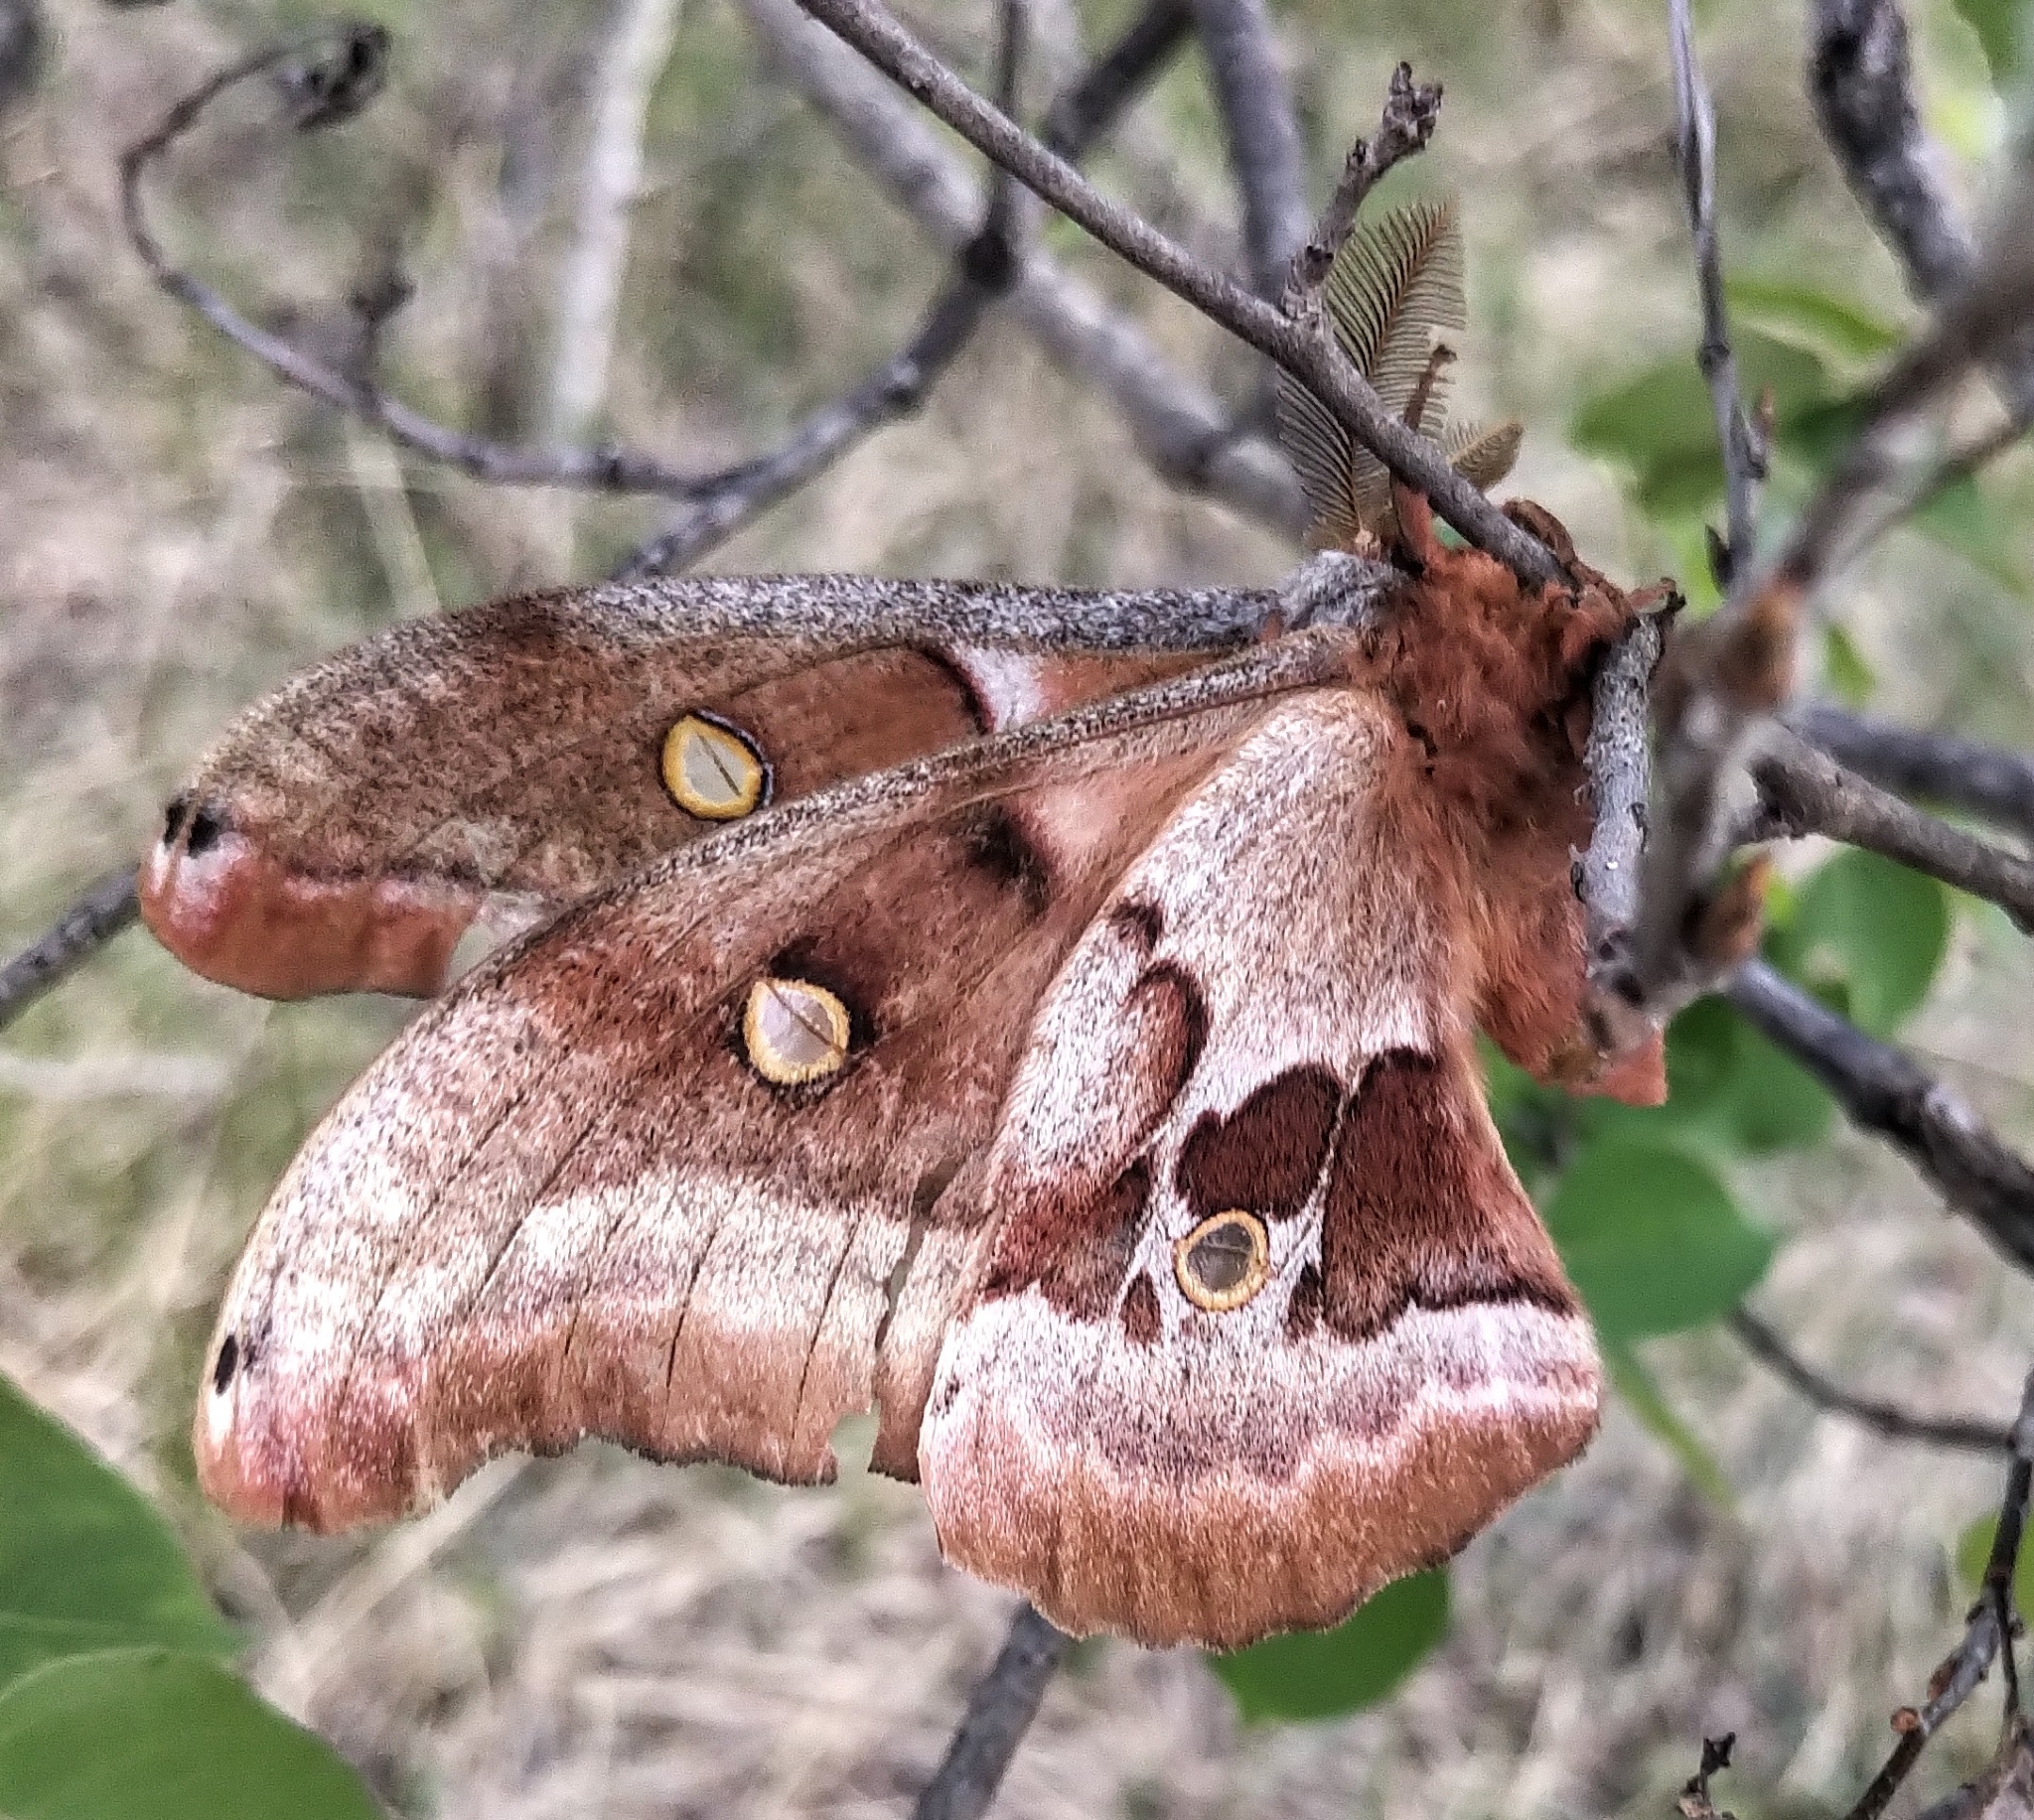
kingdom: Animalia
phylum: Arthropoda
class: Insecta
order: Lepidoptera
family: Saturniidae
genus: Antheraea
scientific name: Antheraea polyphemus
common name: Polyphemus moth
